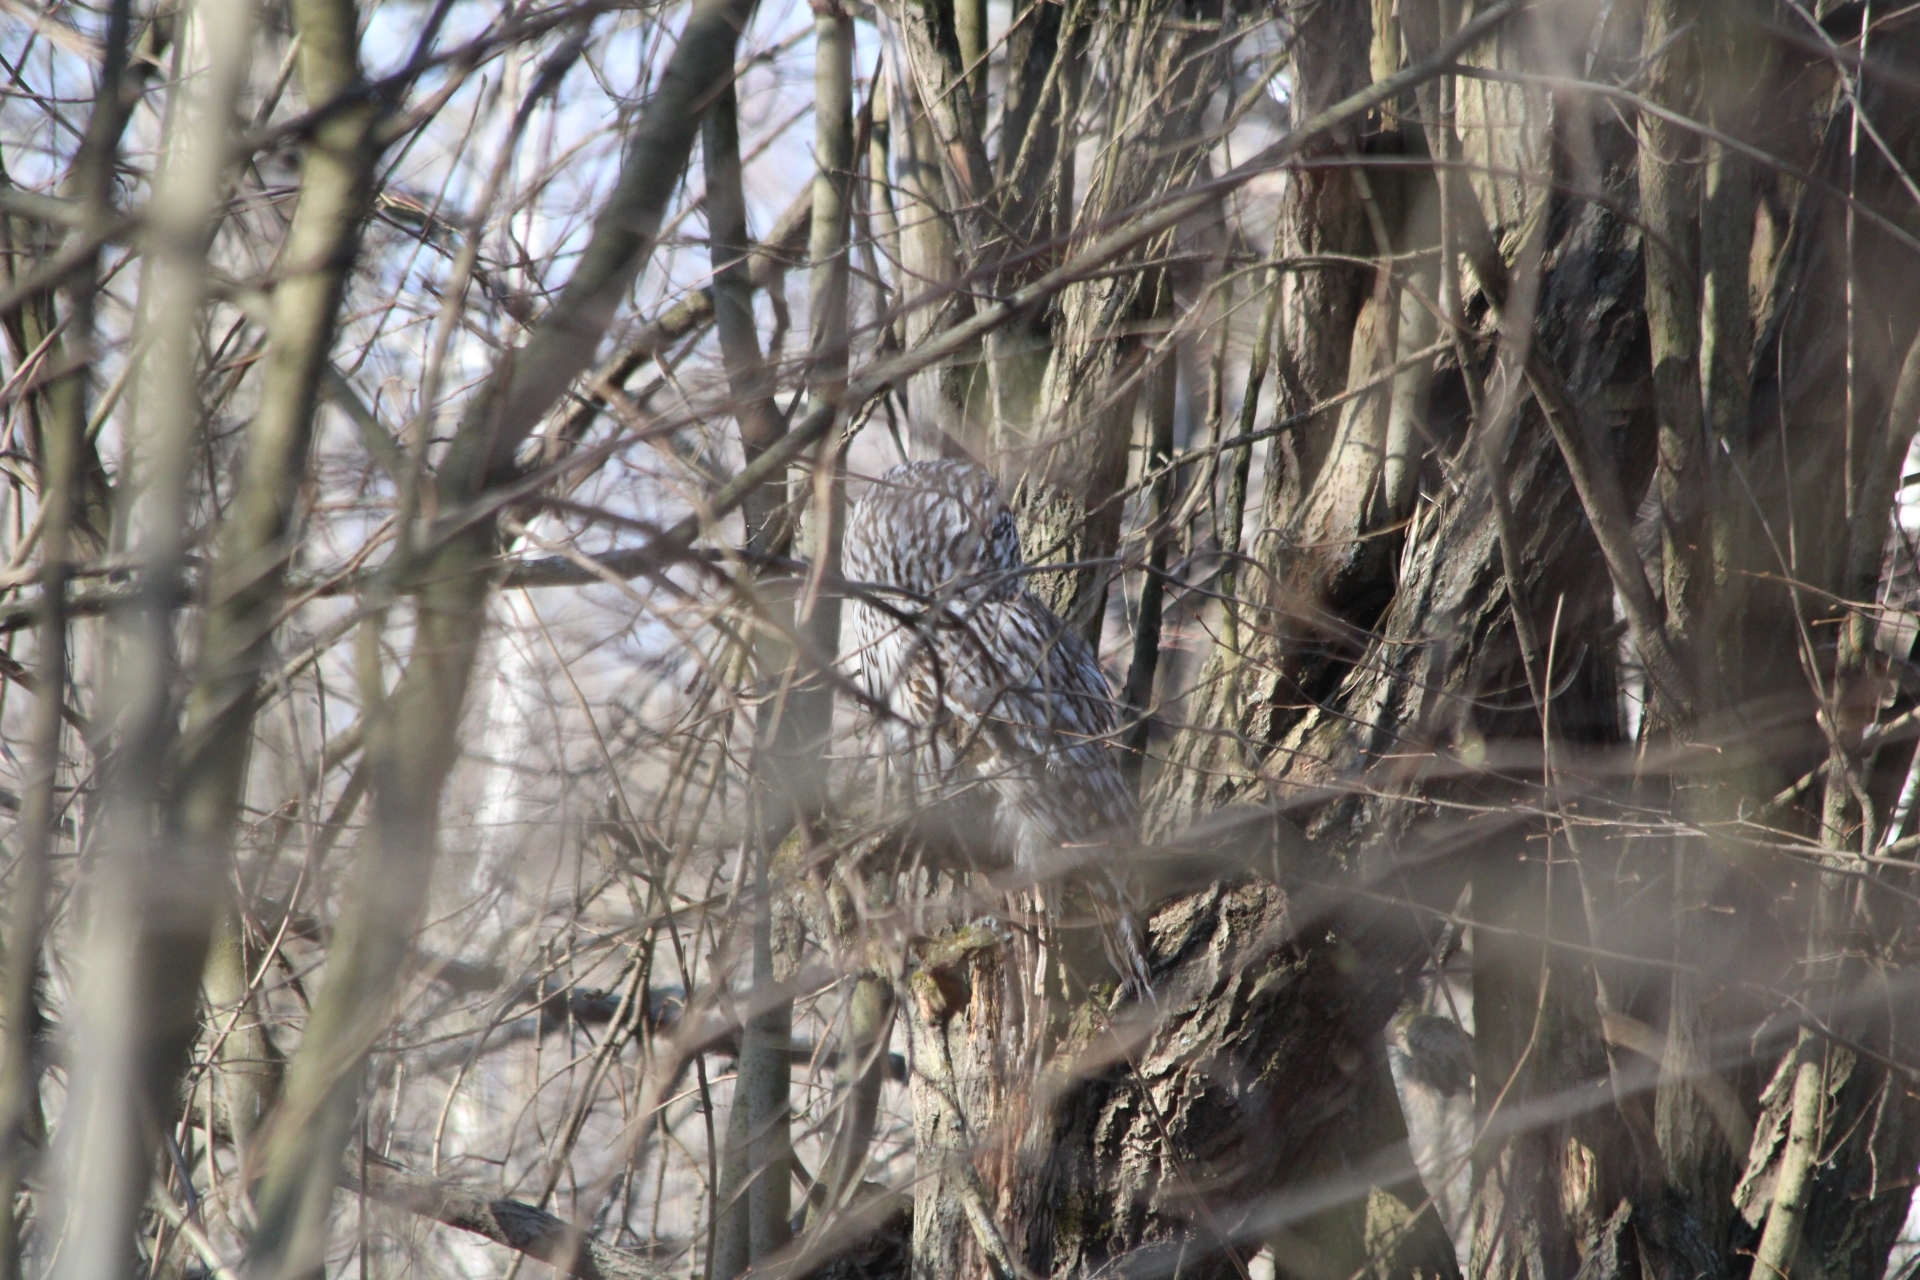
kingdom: Animalia
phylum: Chordata
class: Aves
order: Strigiformes
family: Strigidae
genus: Strix
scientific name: Strix uralensis
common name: Ural owl
